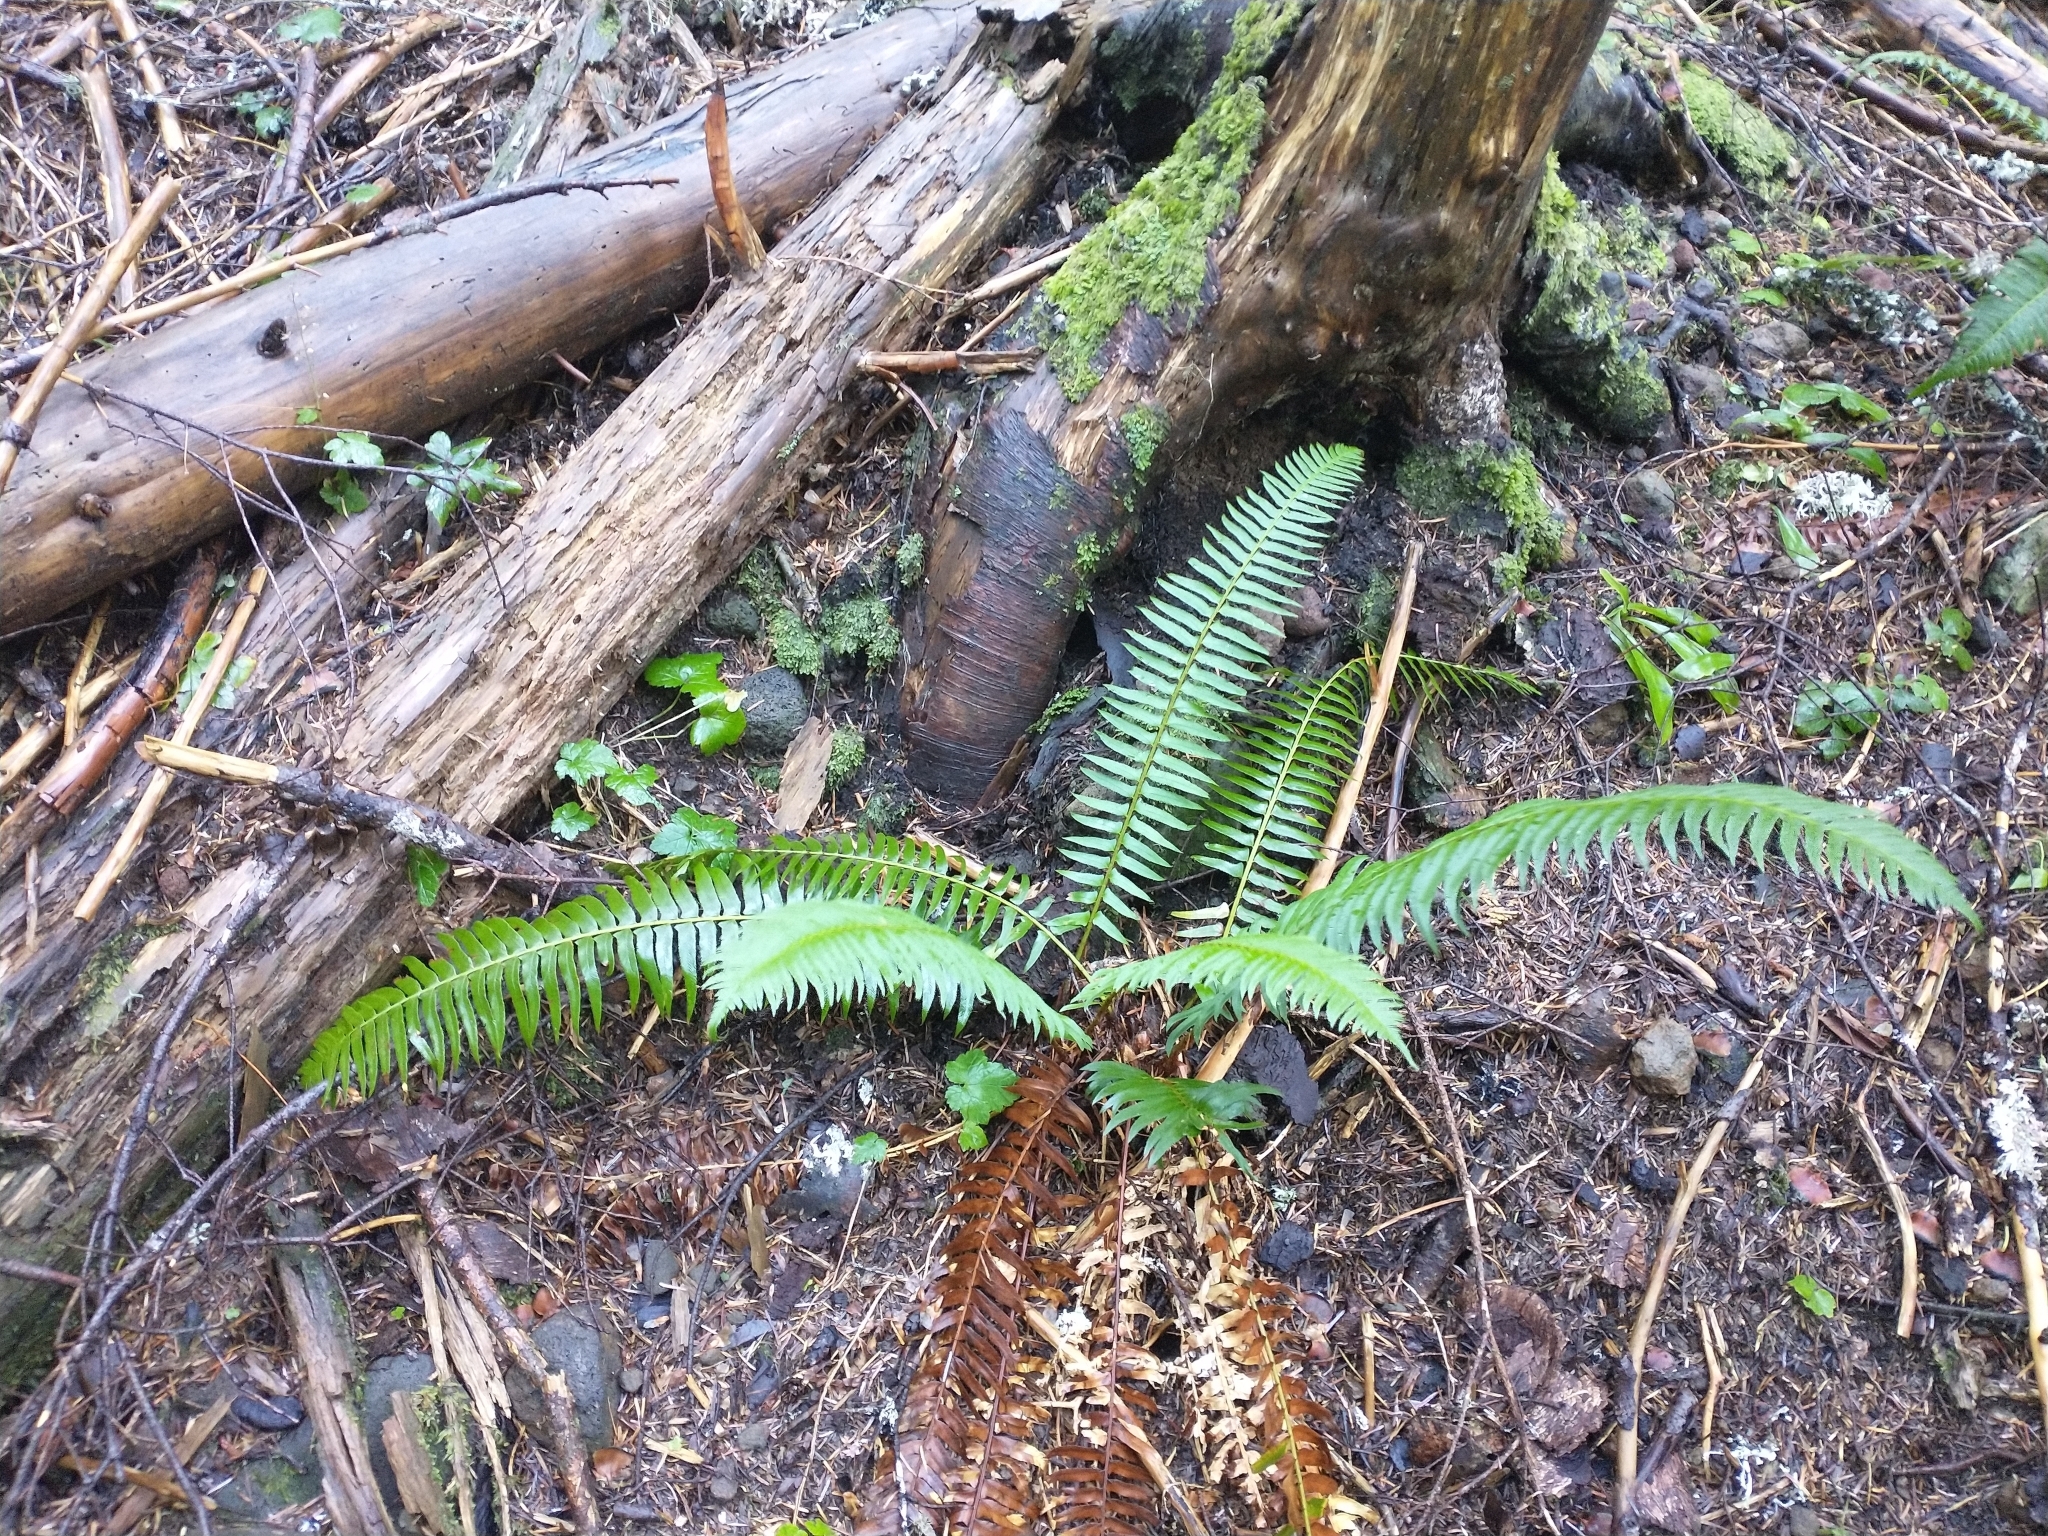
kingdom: Plantae
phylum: Tracheophyta
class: Polypodiopsida
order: Polypodiales
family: Dryopteridaceae
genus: Polystichum
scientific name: Polystichum munitum
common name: Western sword-fern
